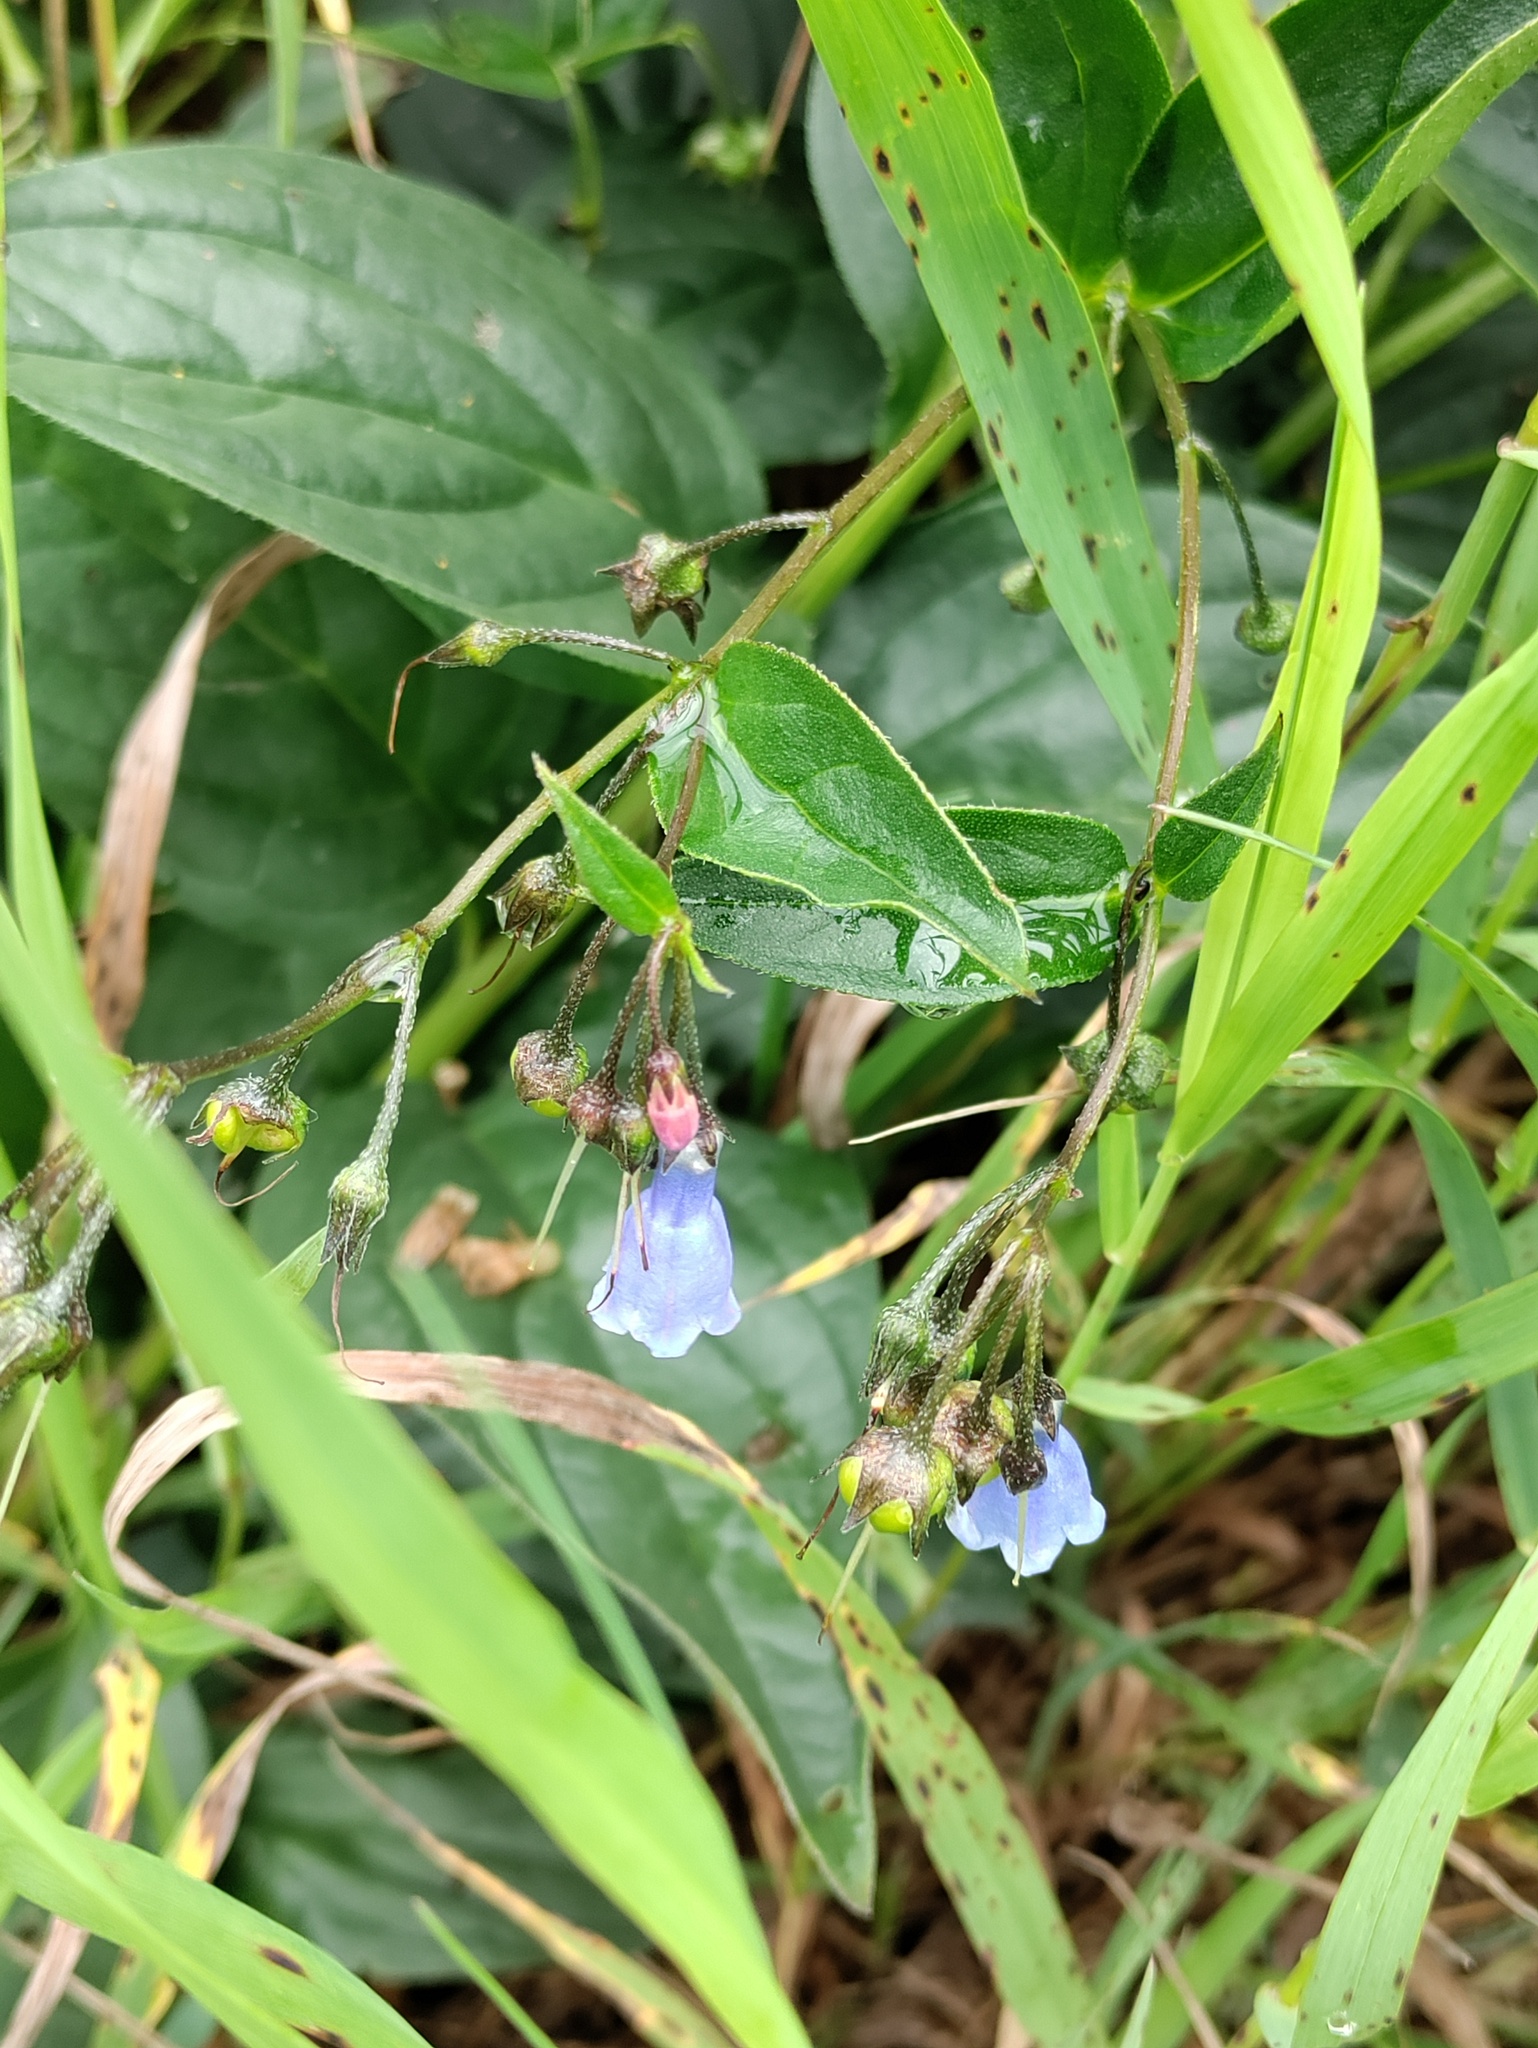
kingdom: Plantae
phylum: Tracheophyta
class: Magnoliopsida
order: Boraginales
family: Boraginaceae
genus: Mertensia
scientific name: Mertensia paniculata
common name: Panicled bluebells
